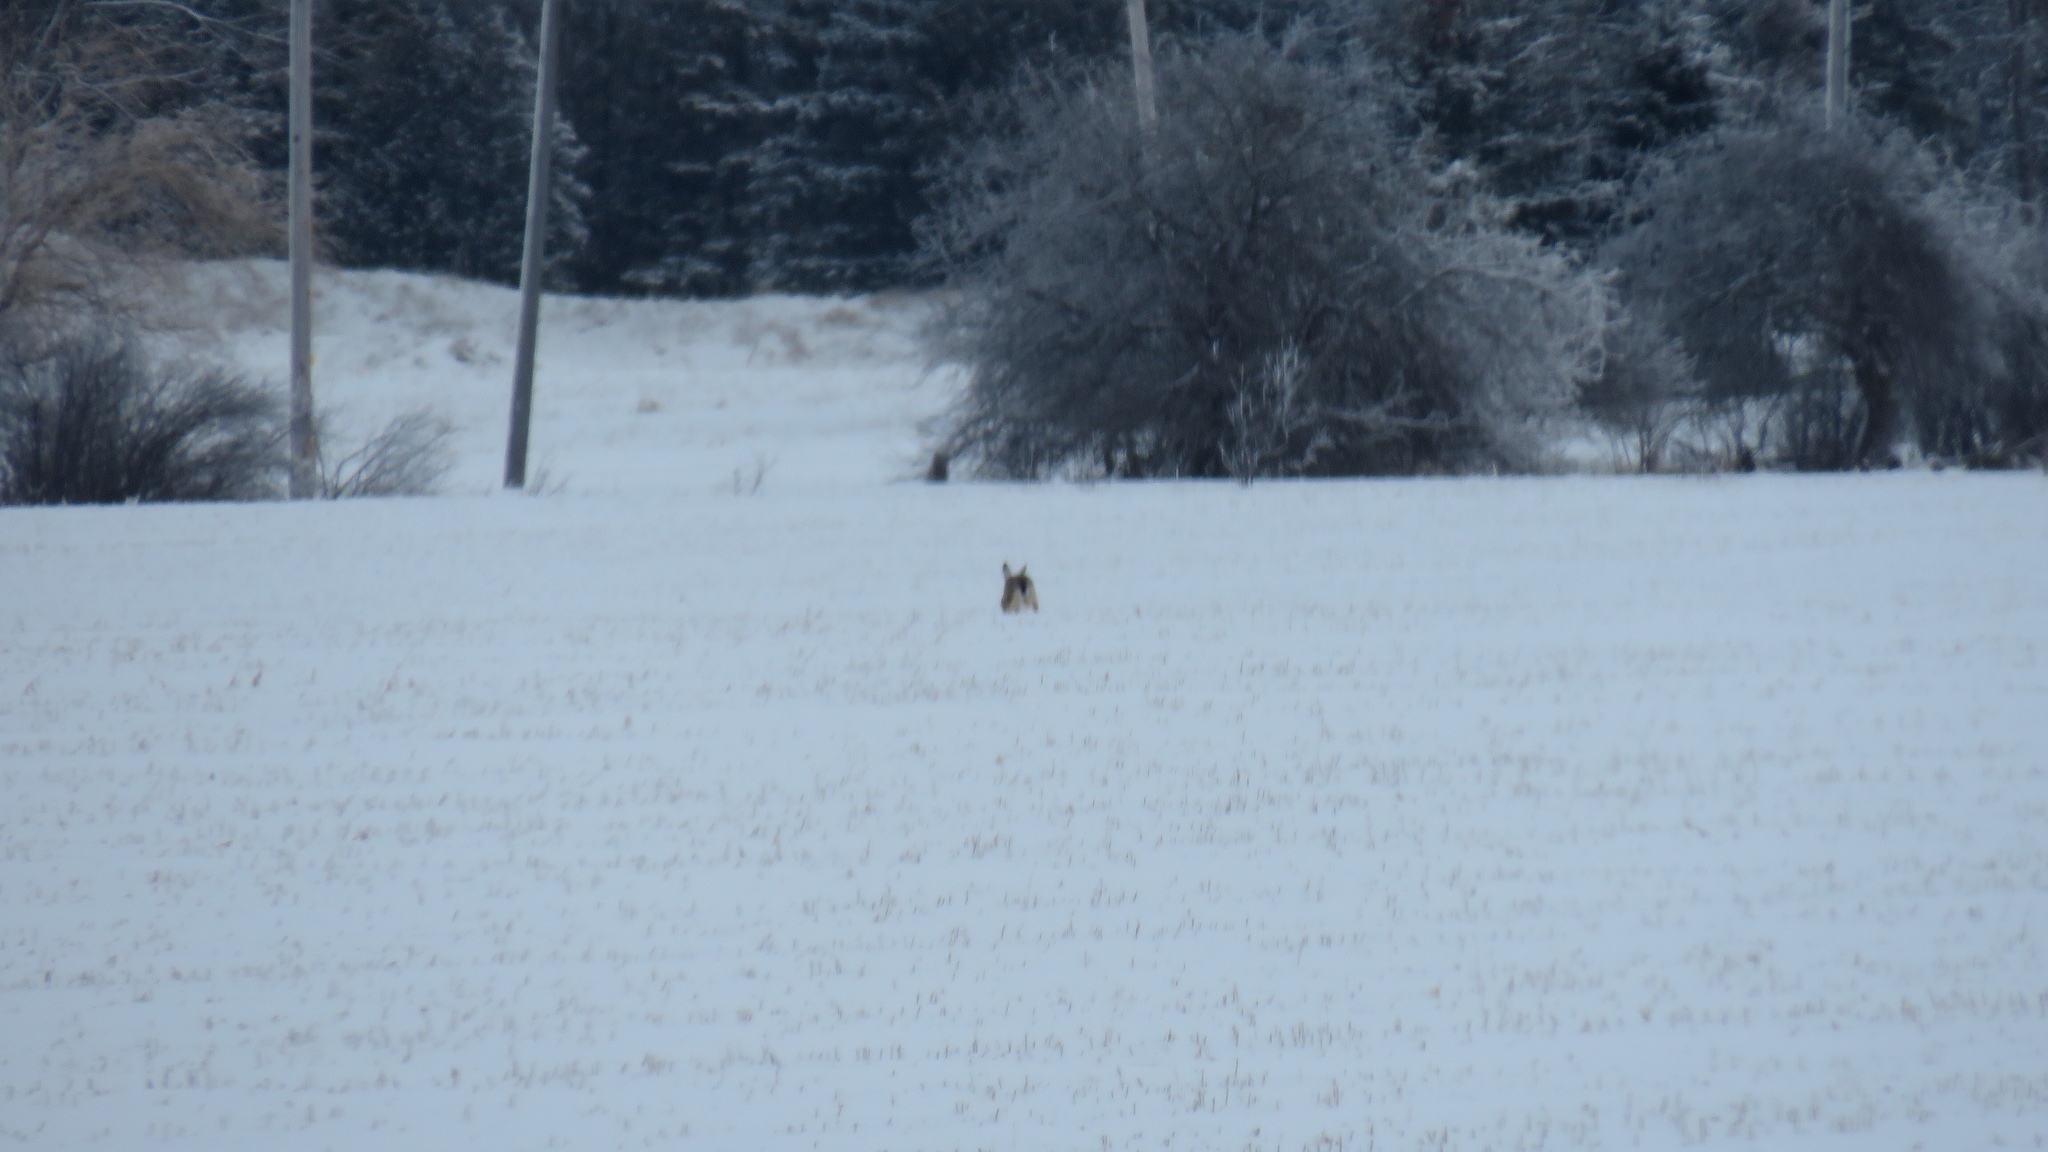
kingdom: Animalia
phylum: Chordata
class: Mammalia
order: Lagomorpha
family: Leporidae
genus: Lepus
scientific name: Lepus europaeus
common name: European hare
